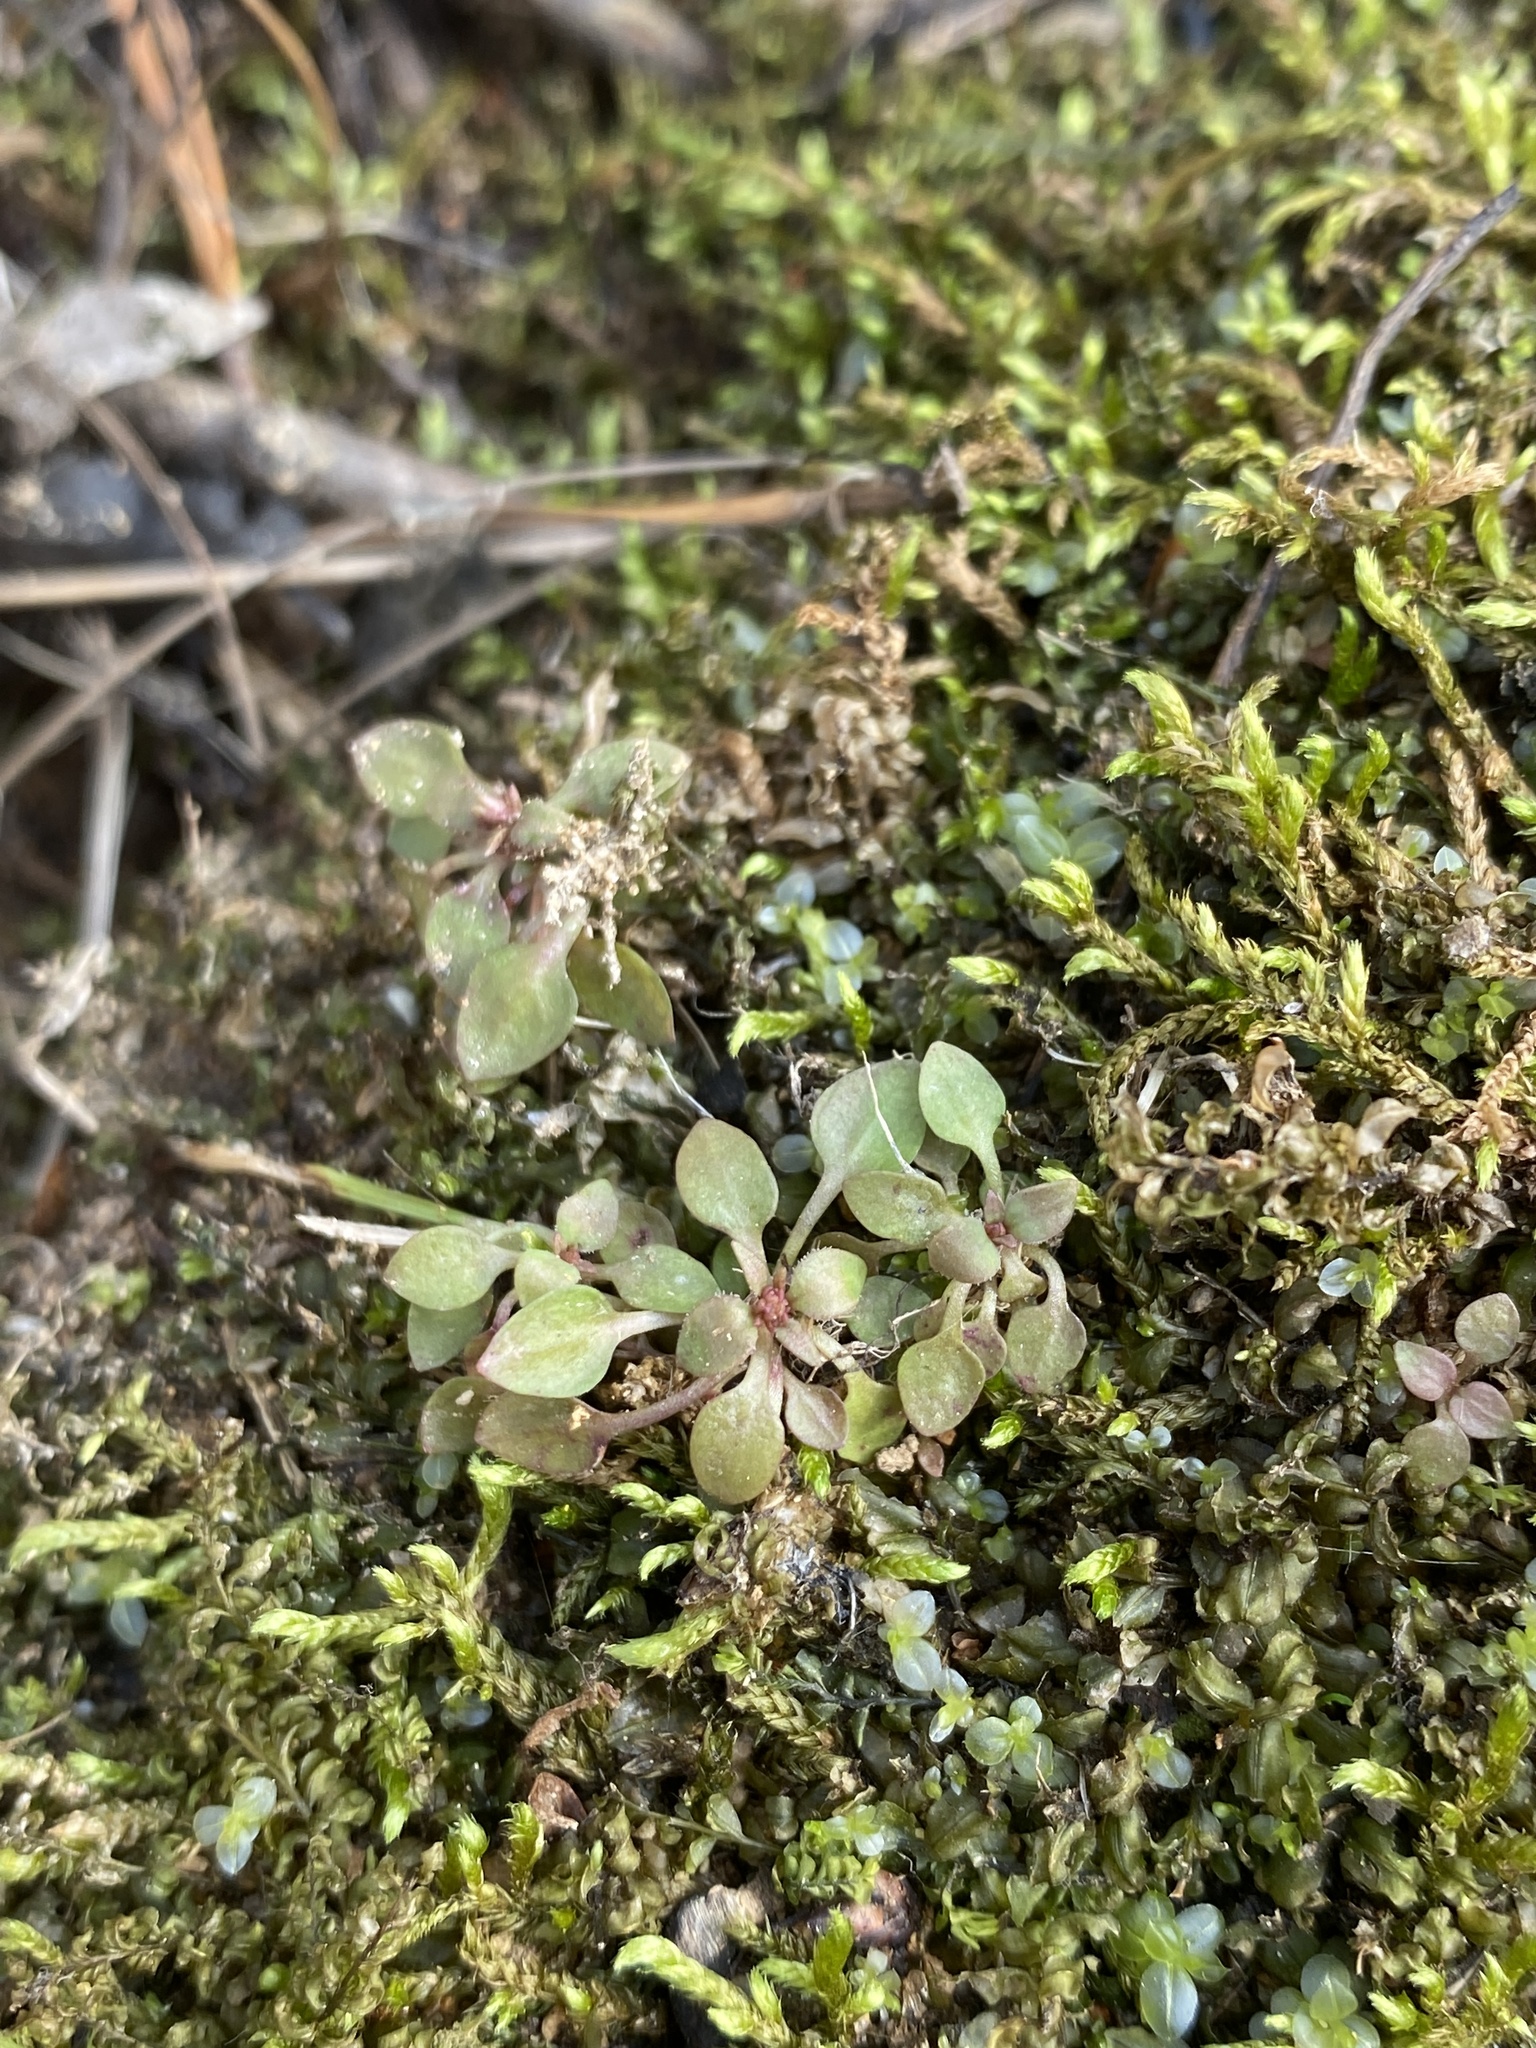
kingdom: Plantae
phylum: Tracheophyta
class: Magnoliopsida
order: Gentianales
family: Rubiaceae
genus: Houstonia
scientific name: Houstonia caerulea
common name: Bluets
